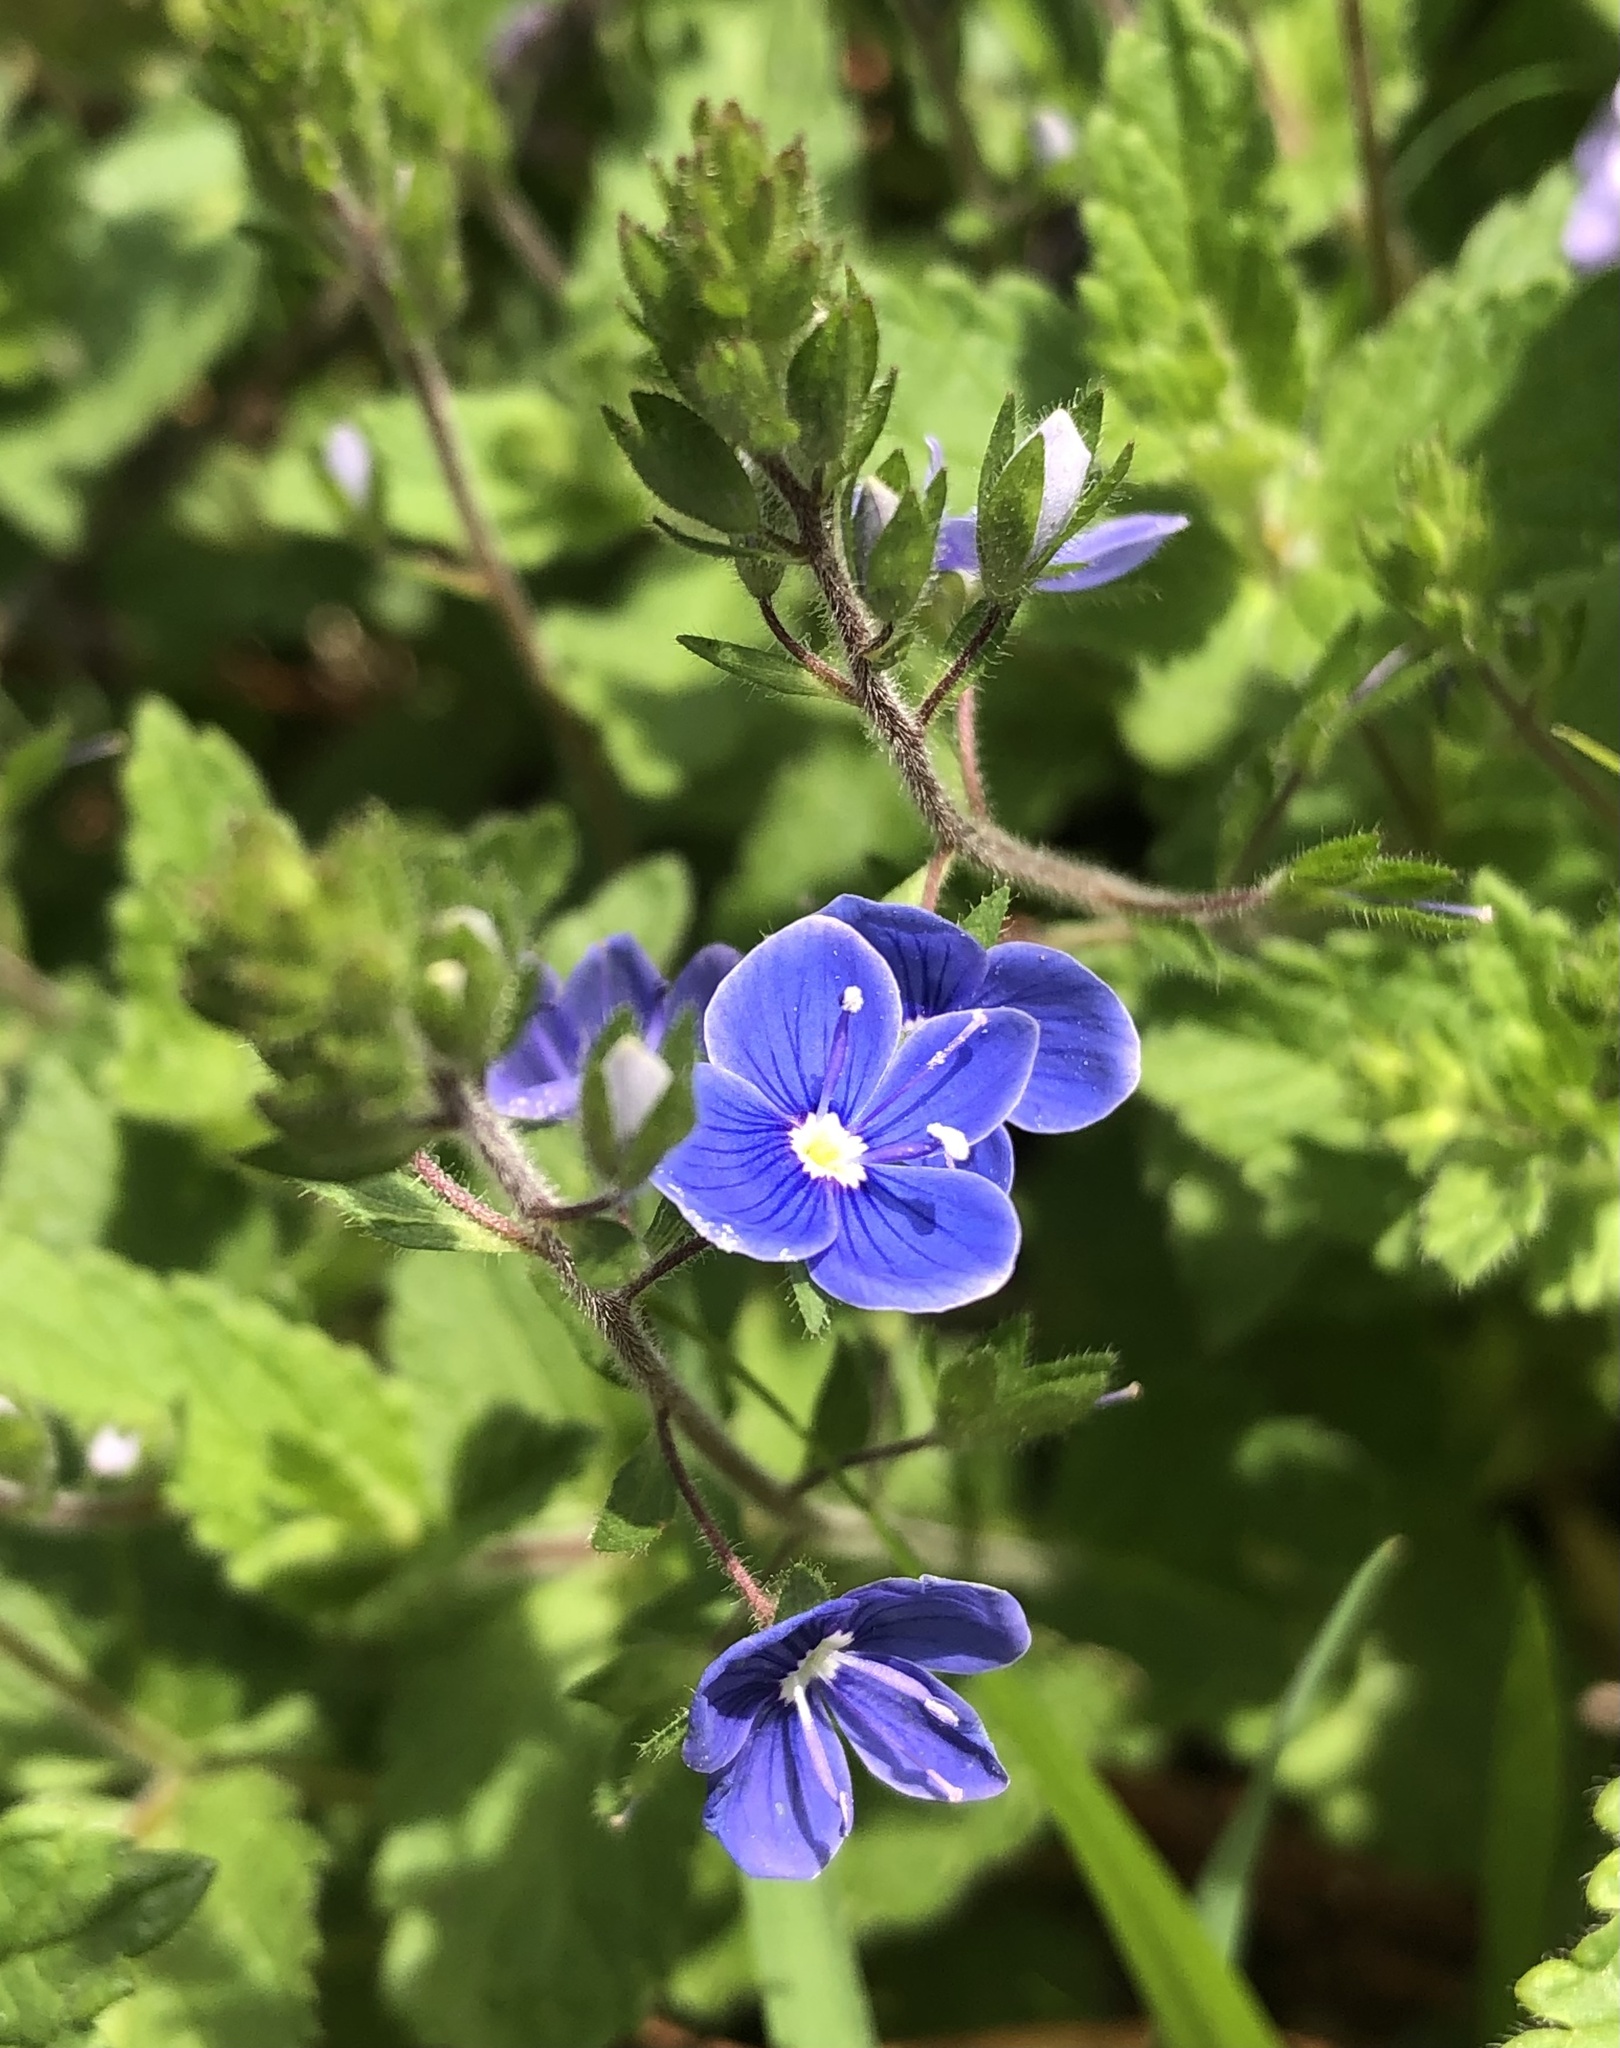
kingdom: Plantae
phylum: Tracheophyta
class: Magnoliopsida
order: Lamiales
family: Plantaginaceae
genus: Veronica
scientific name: Veronica chamaedrys
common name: Germander speedwell
